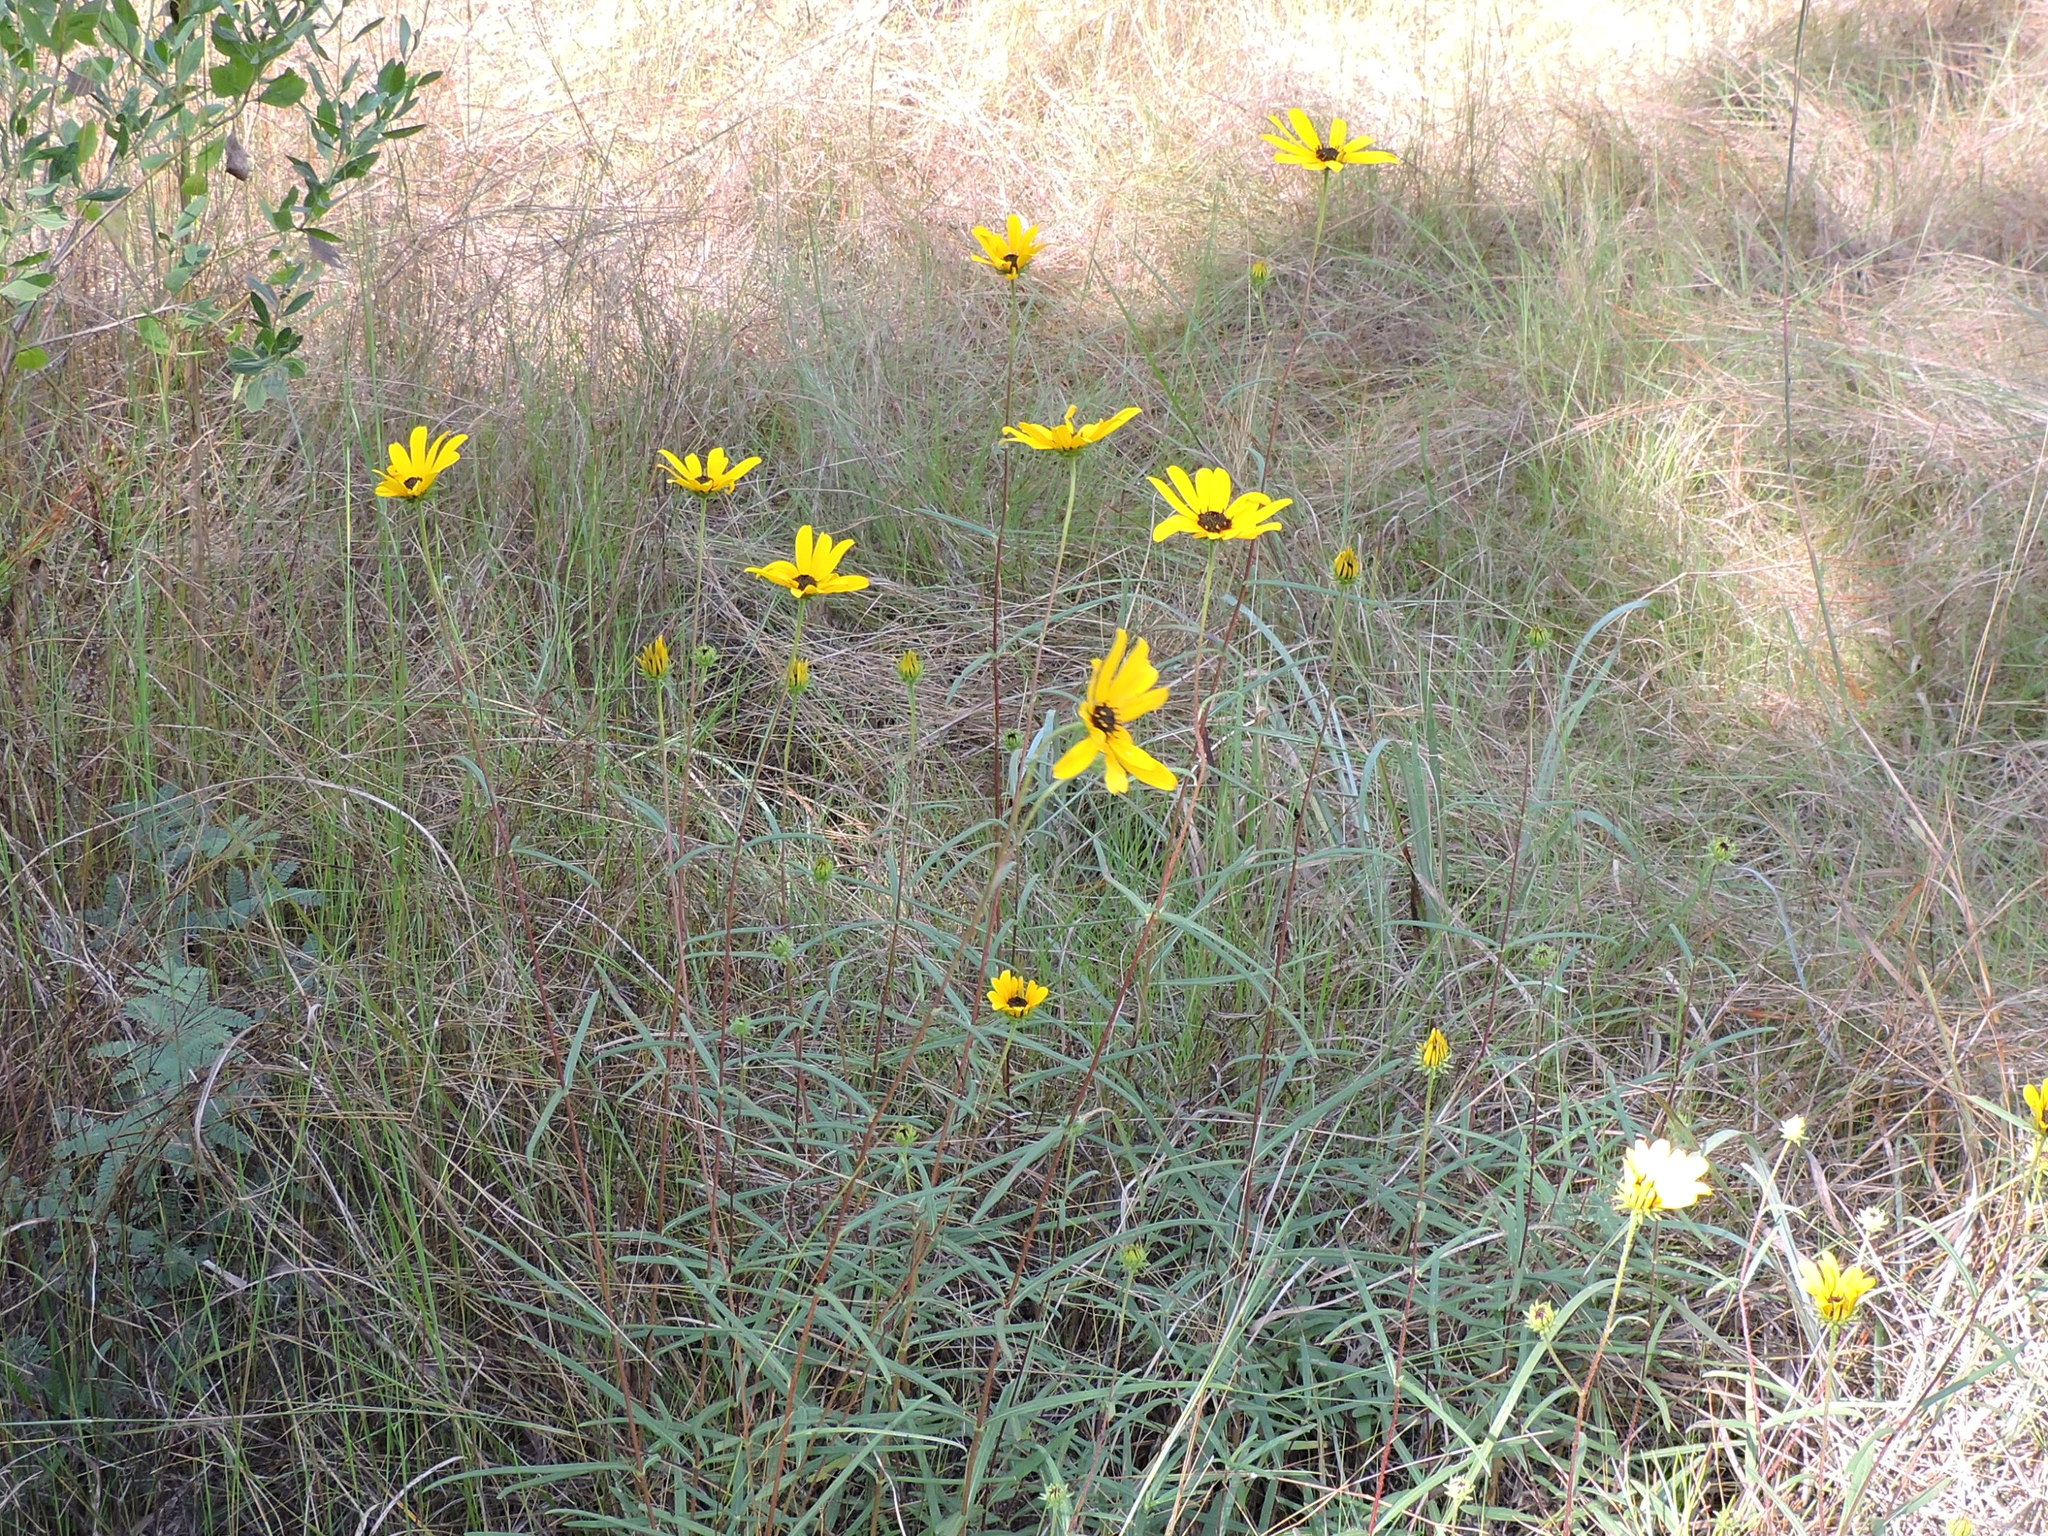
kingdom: Plantae
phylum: Tracheophyta
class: Magnoliopsida
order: Asterales
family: Asteraceae
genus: Helianthus
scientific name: Helianthus angustifolius
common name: Swamp sunflower
